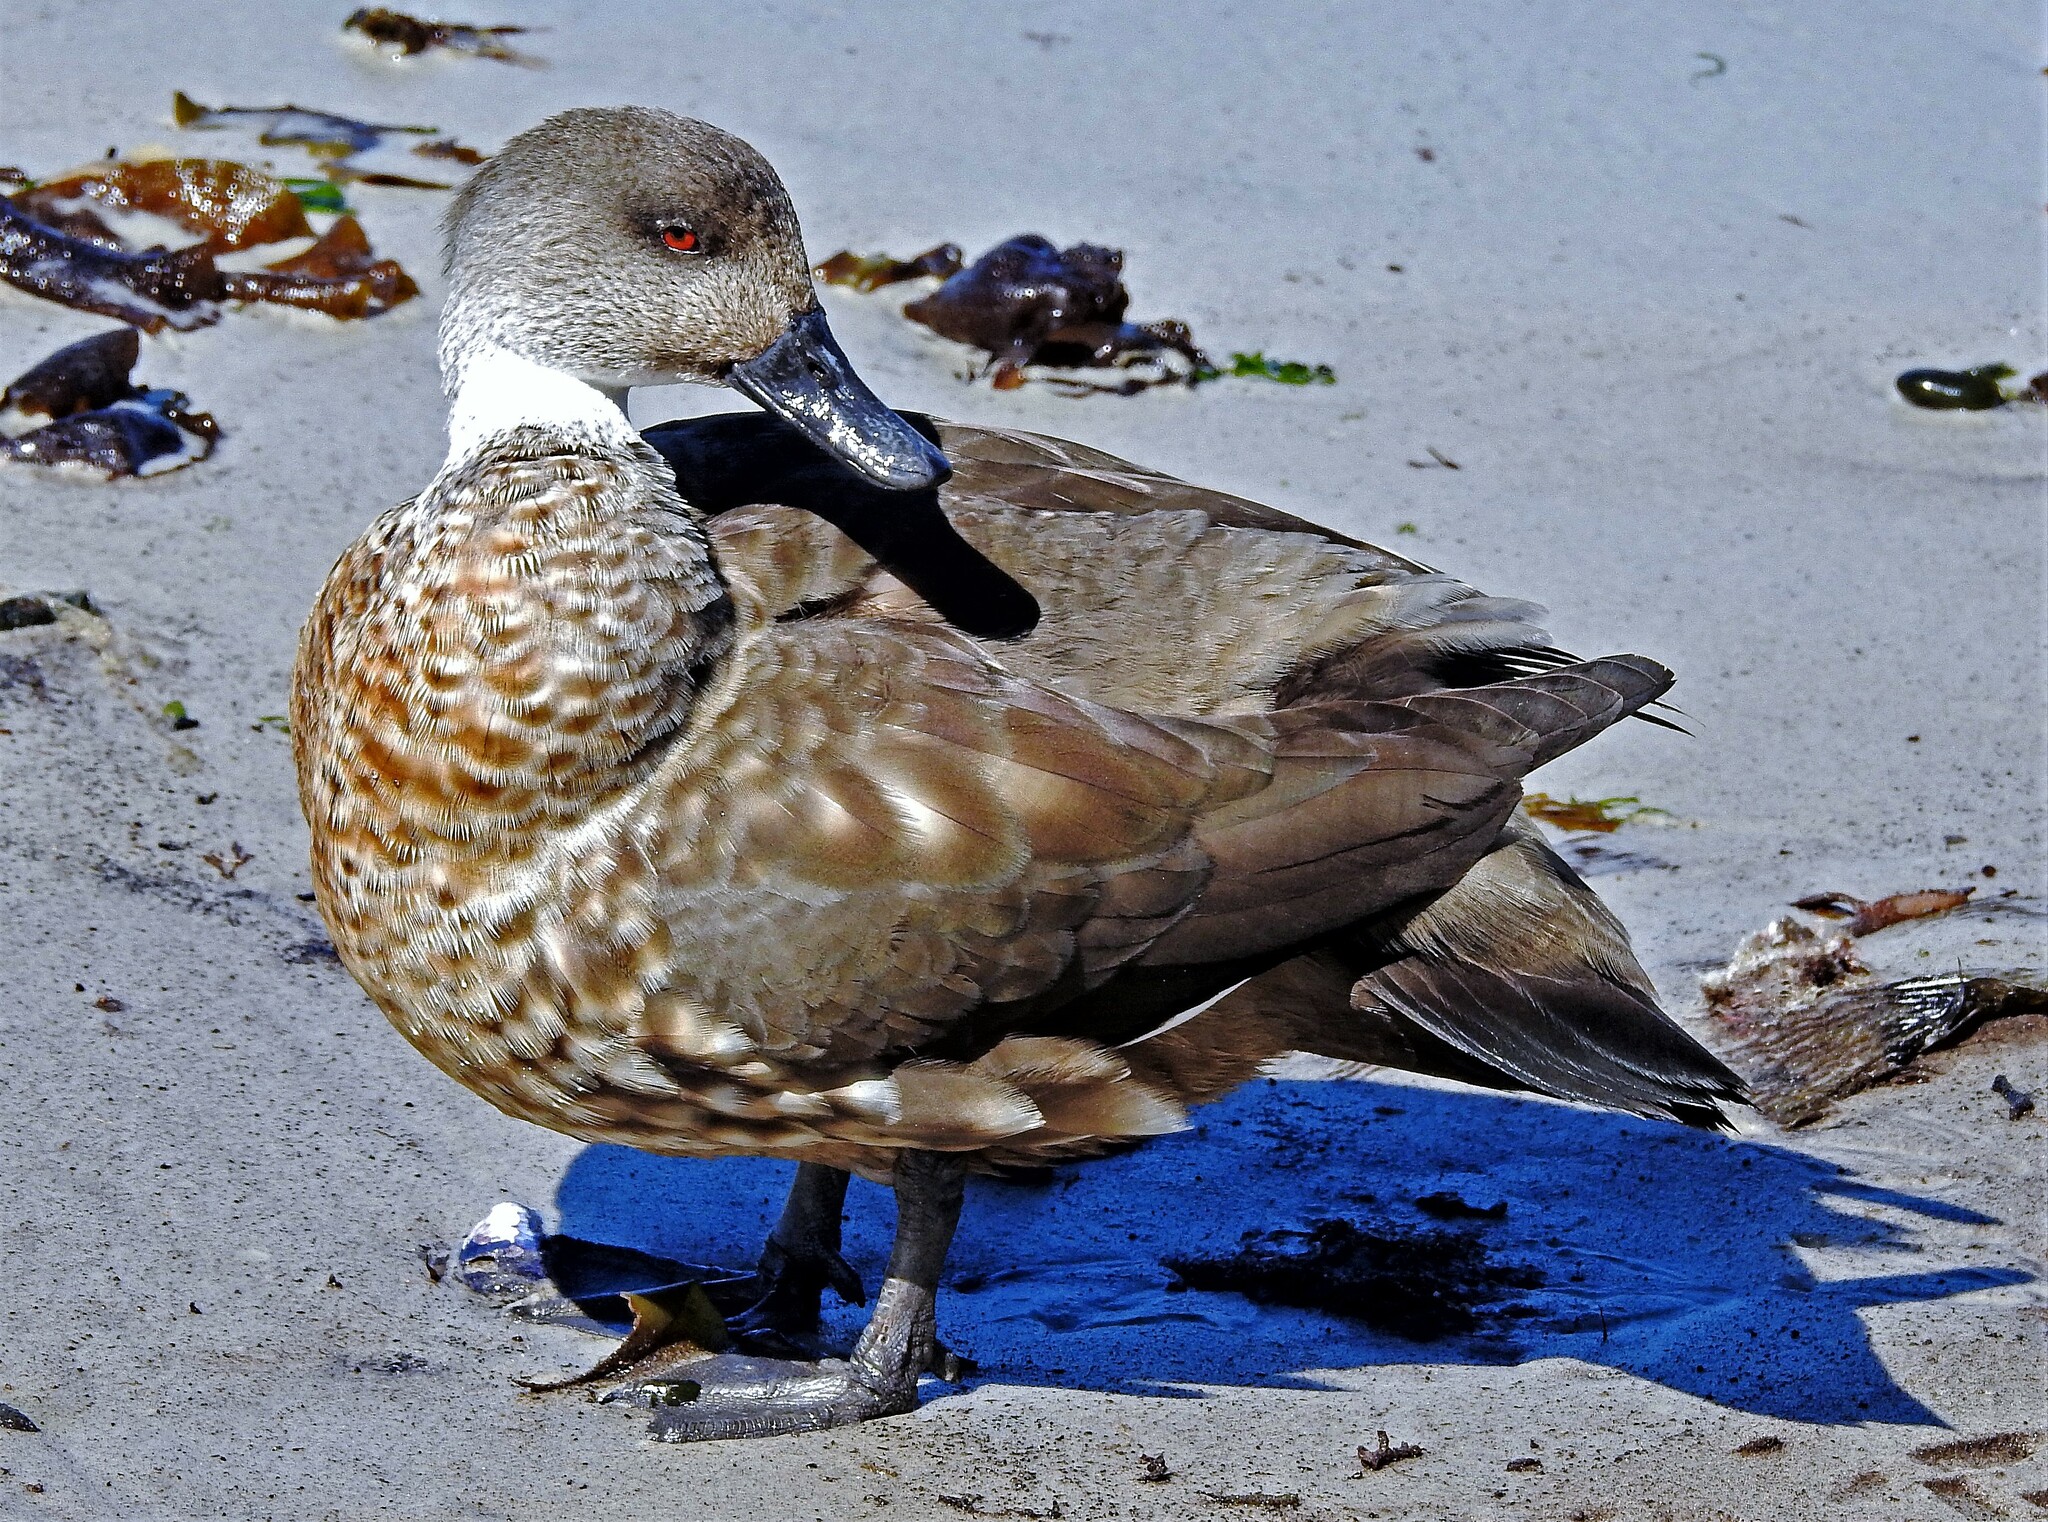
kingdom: Animalia
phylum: Chordata
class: Aves
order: Anseriformes
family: Anatidae
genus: Lophonetta
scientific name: Lophonetta specularioides
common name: Crested duck
